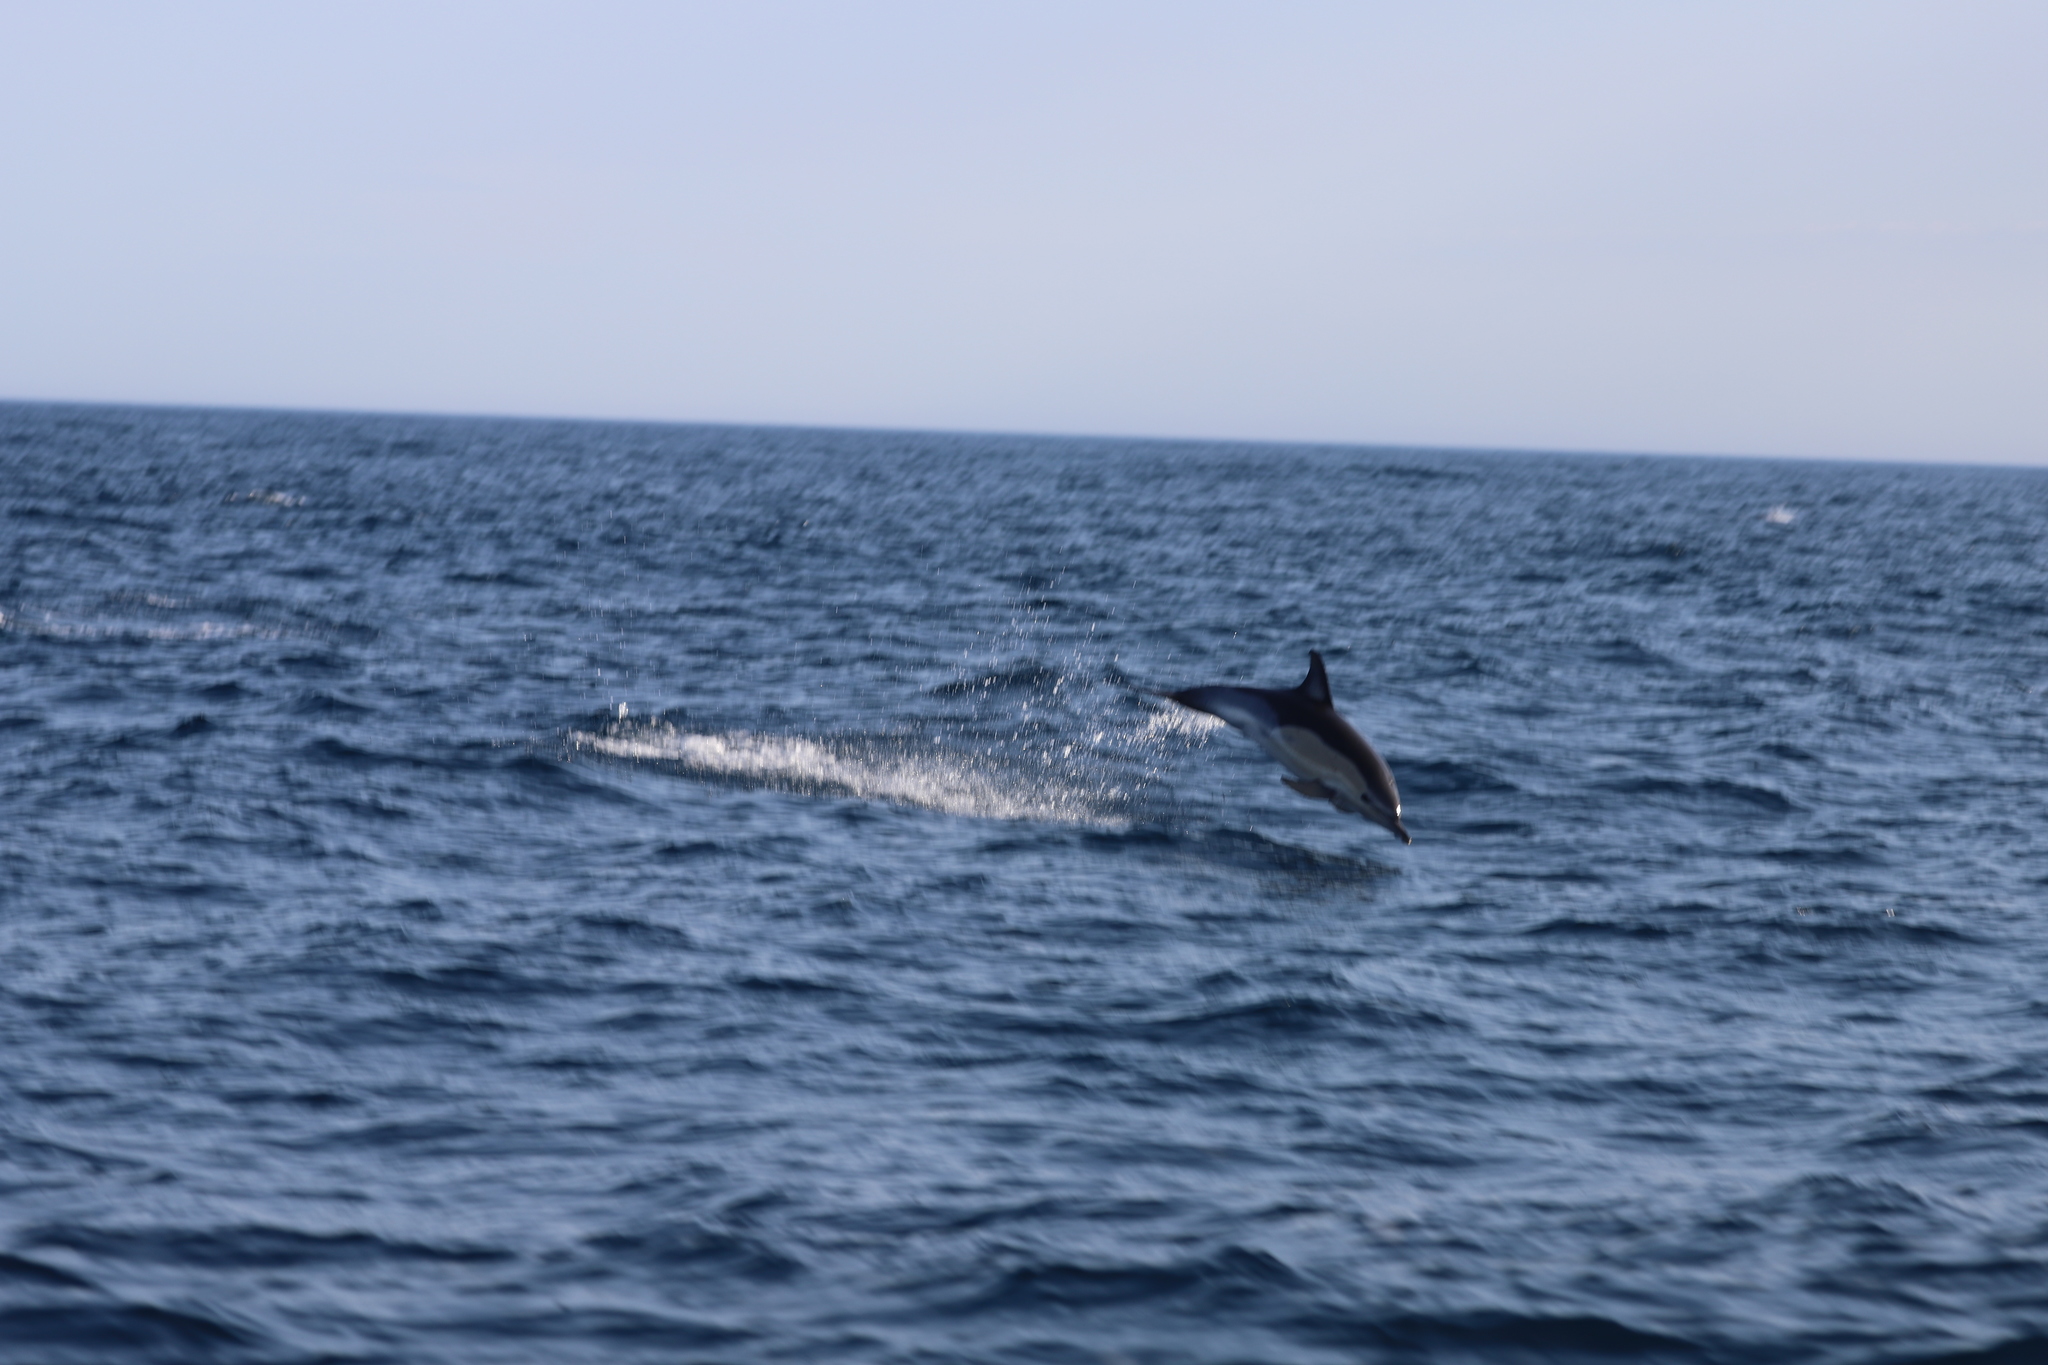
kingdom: Animalia
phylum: Chordata
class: Mammalia
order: Cetacea
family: Delphinidae
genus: Delphinus
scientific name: Delphinus delphis
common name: Common dolphin
